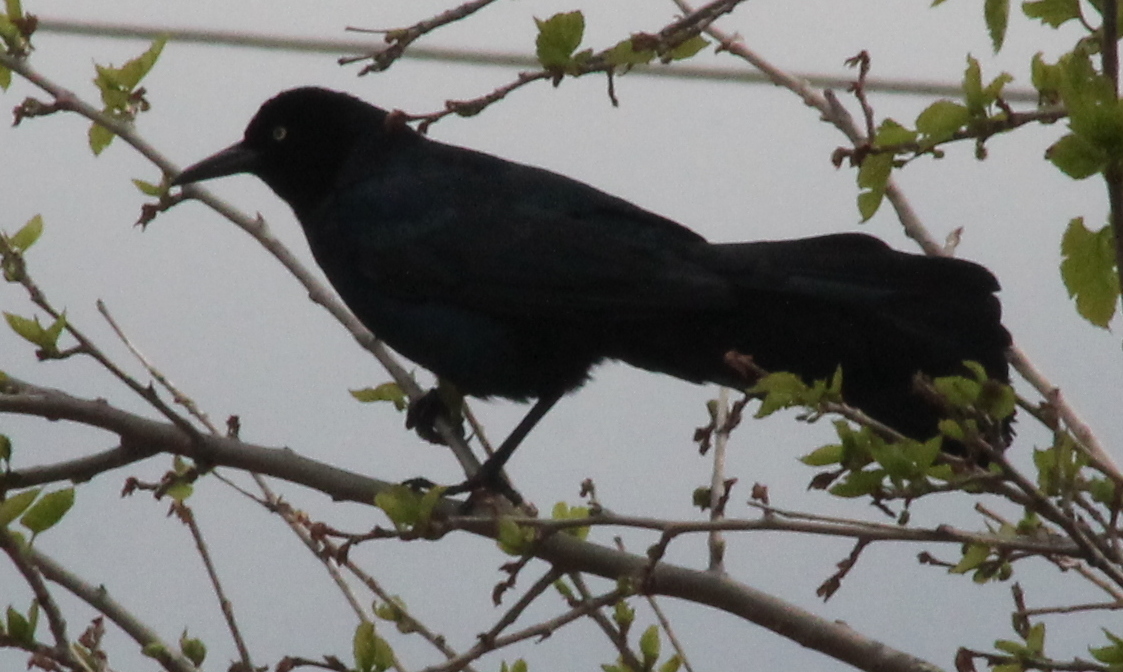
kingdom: Animalia
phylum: Chordata
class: Aves
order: Passeriformes
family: Icteridae
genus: Quiscalus
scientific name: Quiscalus mexicanus
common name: Great-tailed grackle
